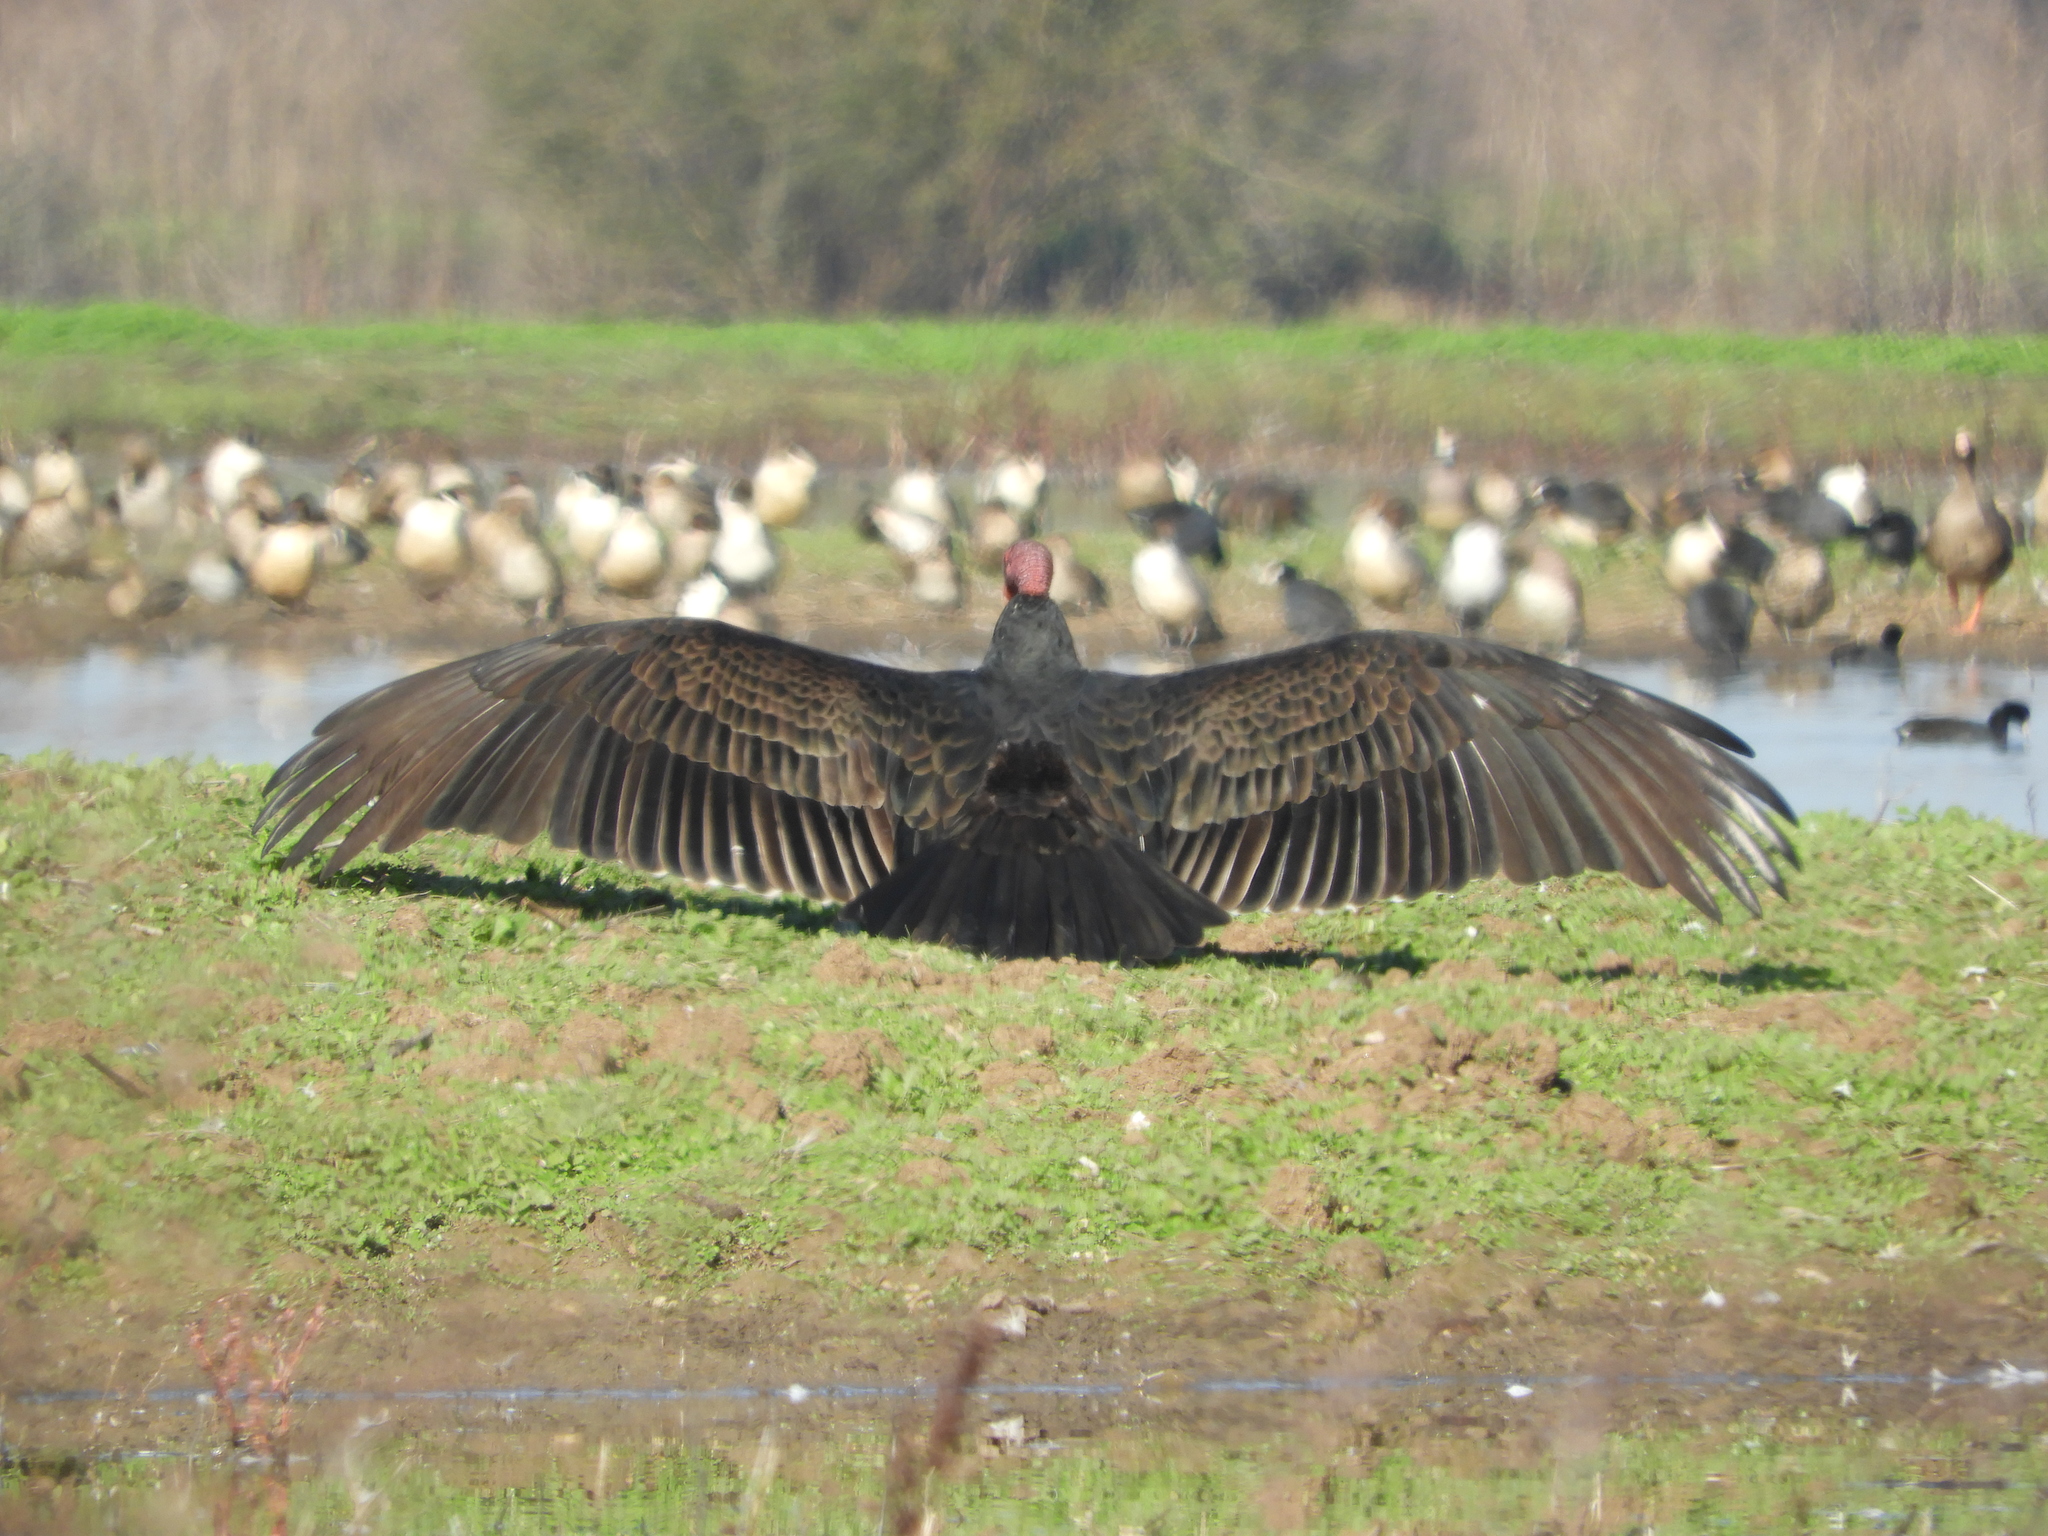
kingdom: Animalia
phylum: Chordata
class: Aves
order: Accipitriformes
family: Cathartidae
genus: Cathartes
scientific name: Cathartes aura
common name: Turkey vulture
